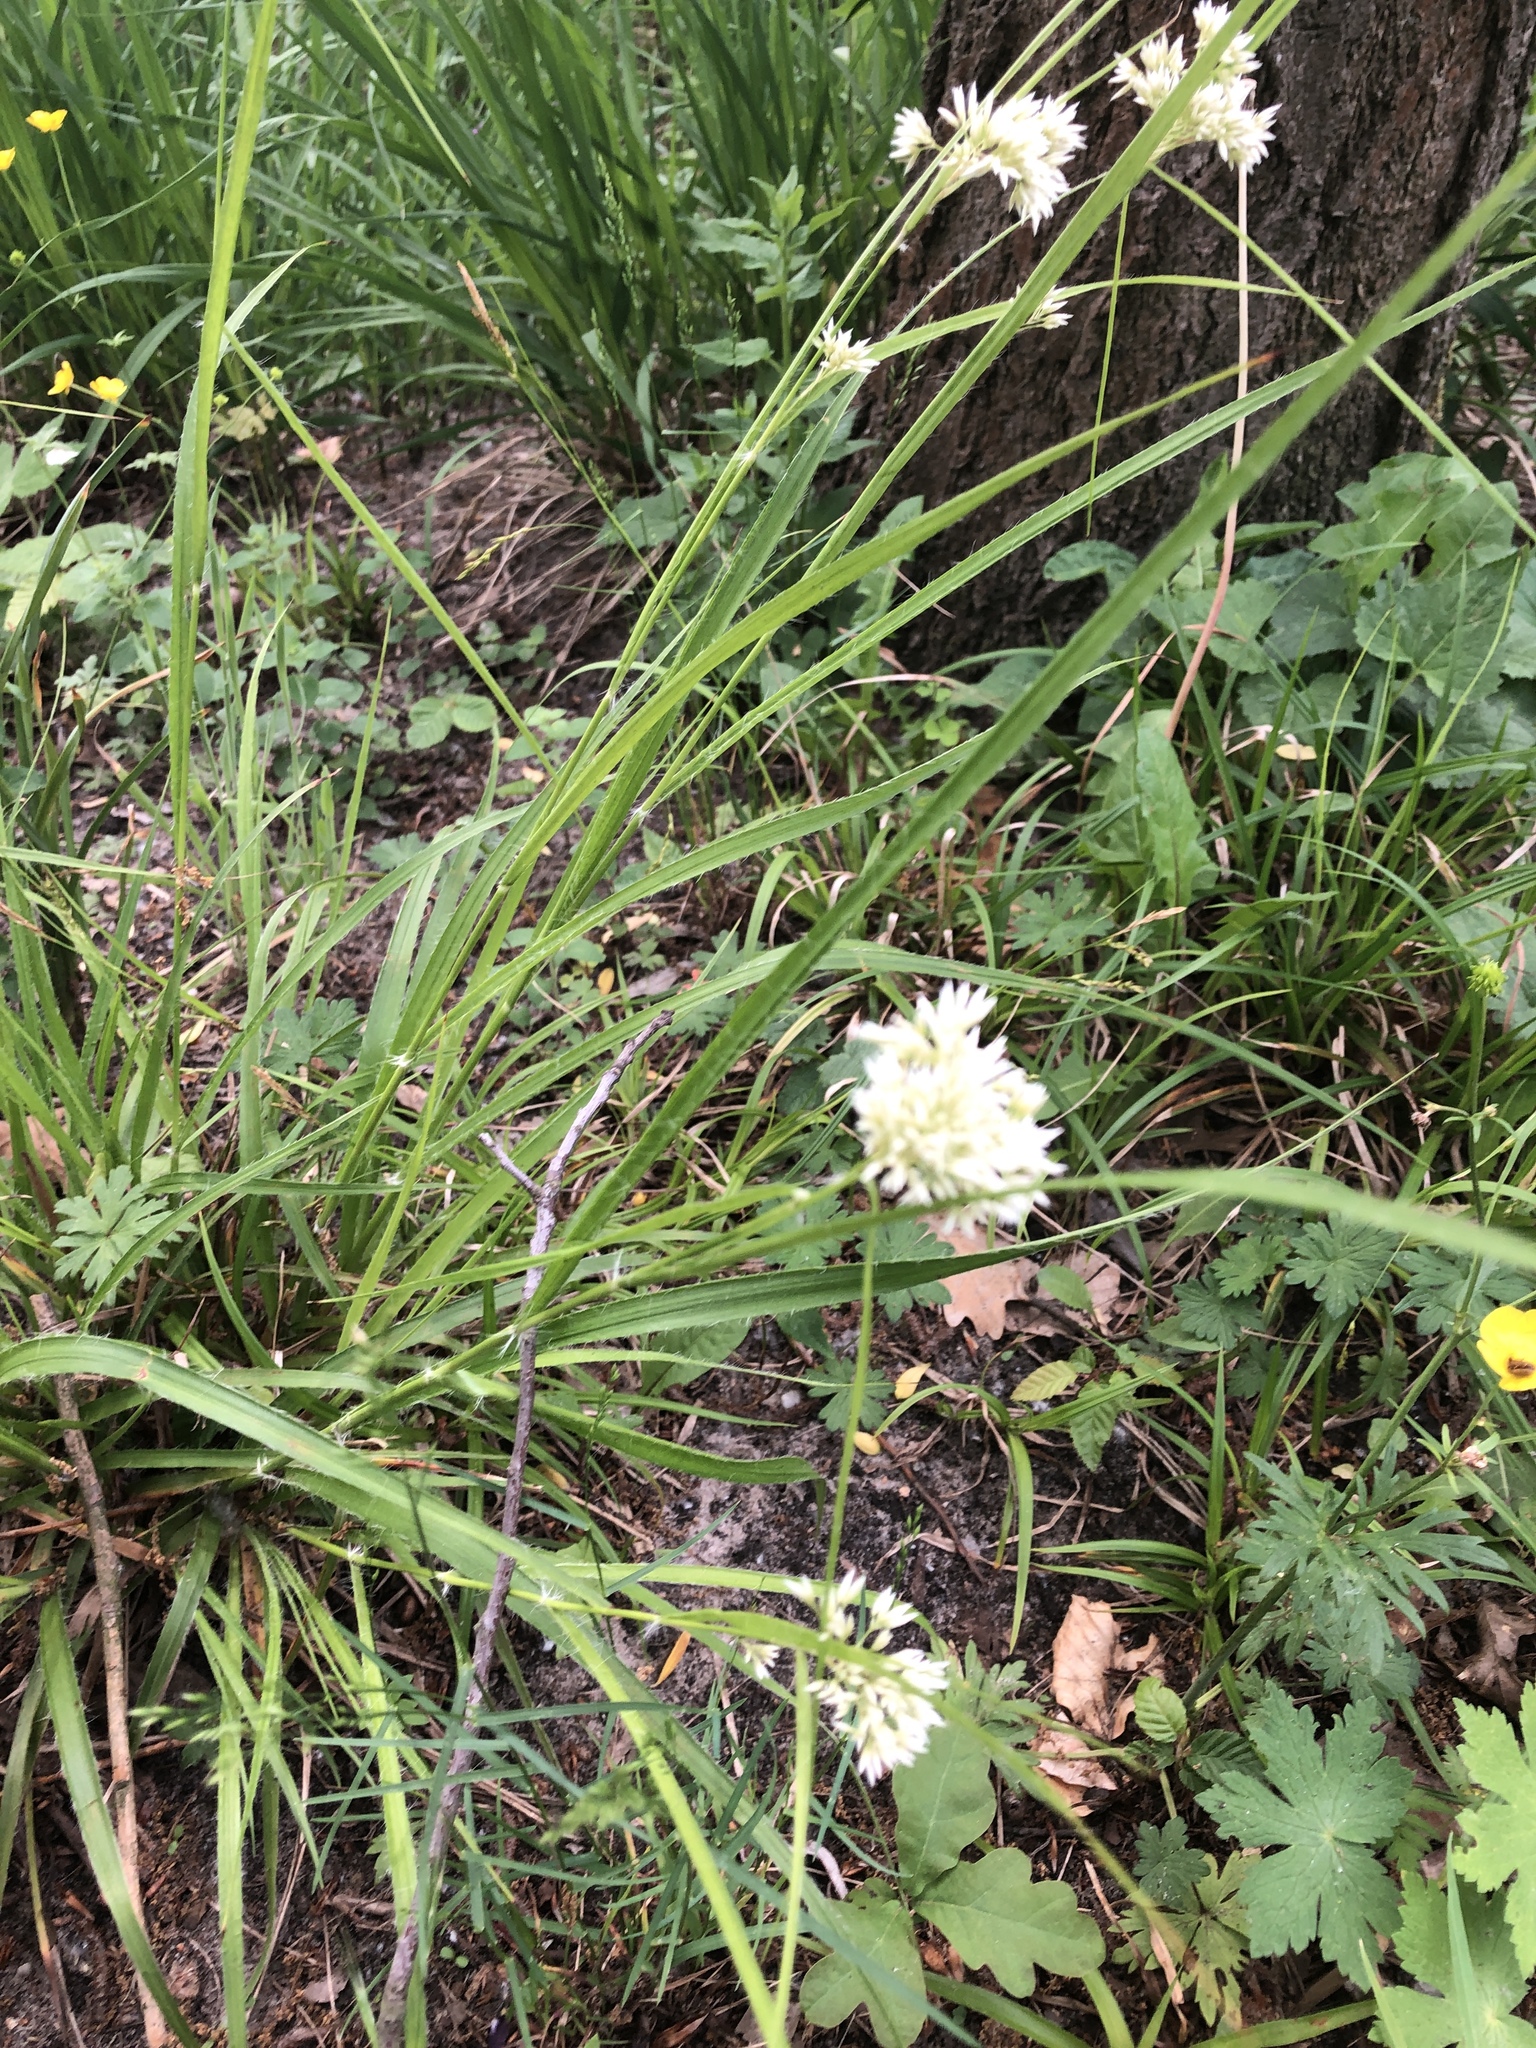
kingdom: Plantae
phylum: Tracheophyta
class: Liliopsida
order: Poales
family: Juncaceae
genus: Luzula
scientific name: Luzula nivea
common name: Snow-white wood-rush
